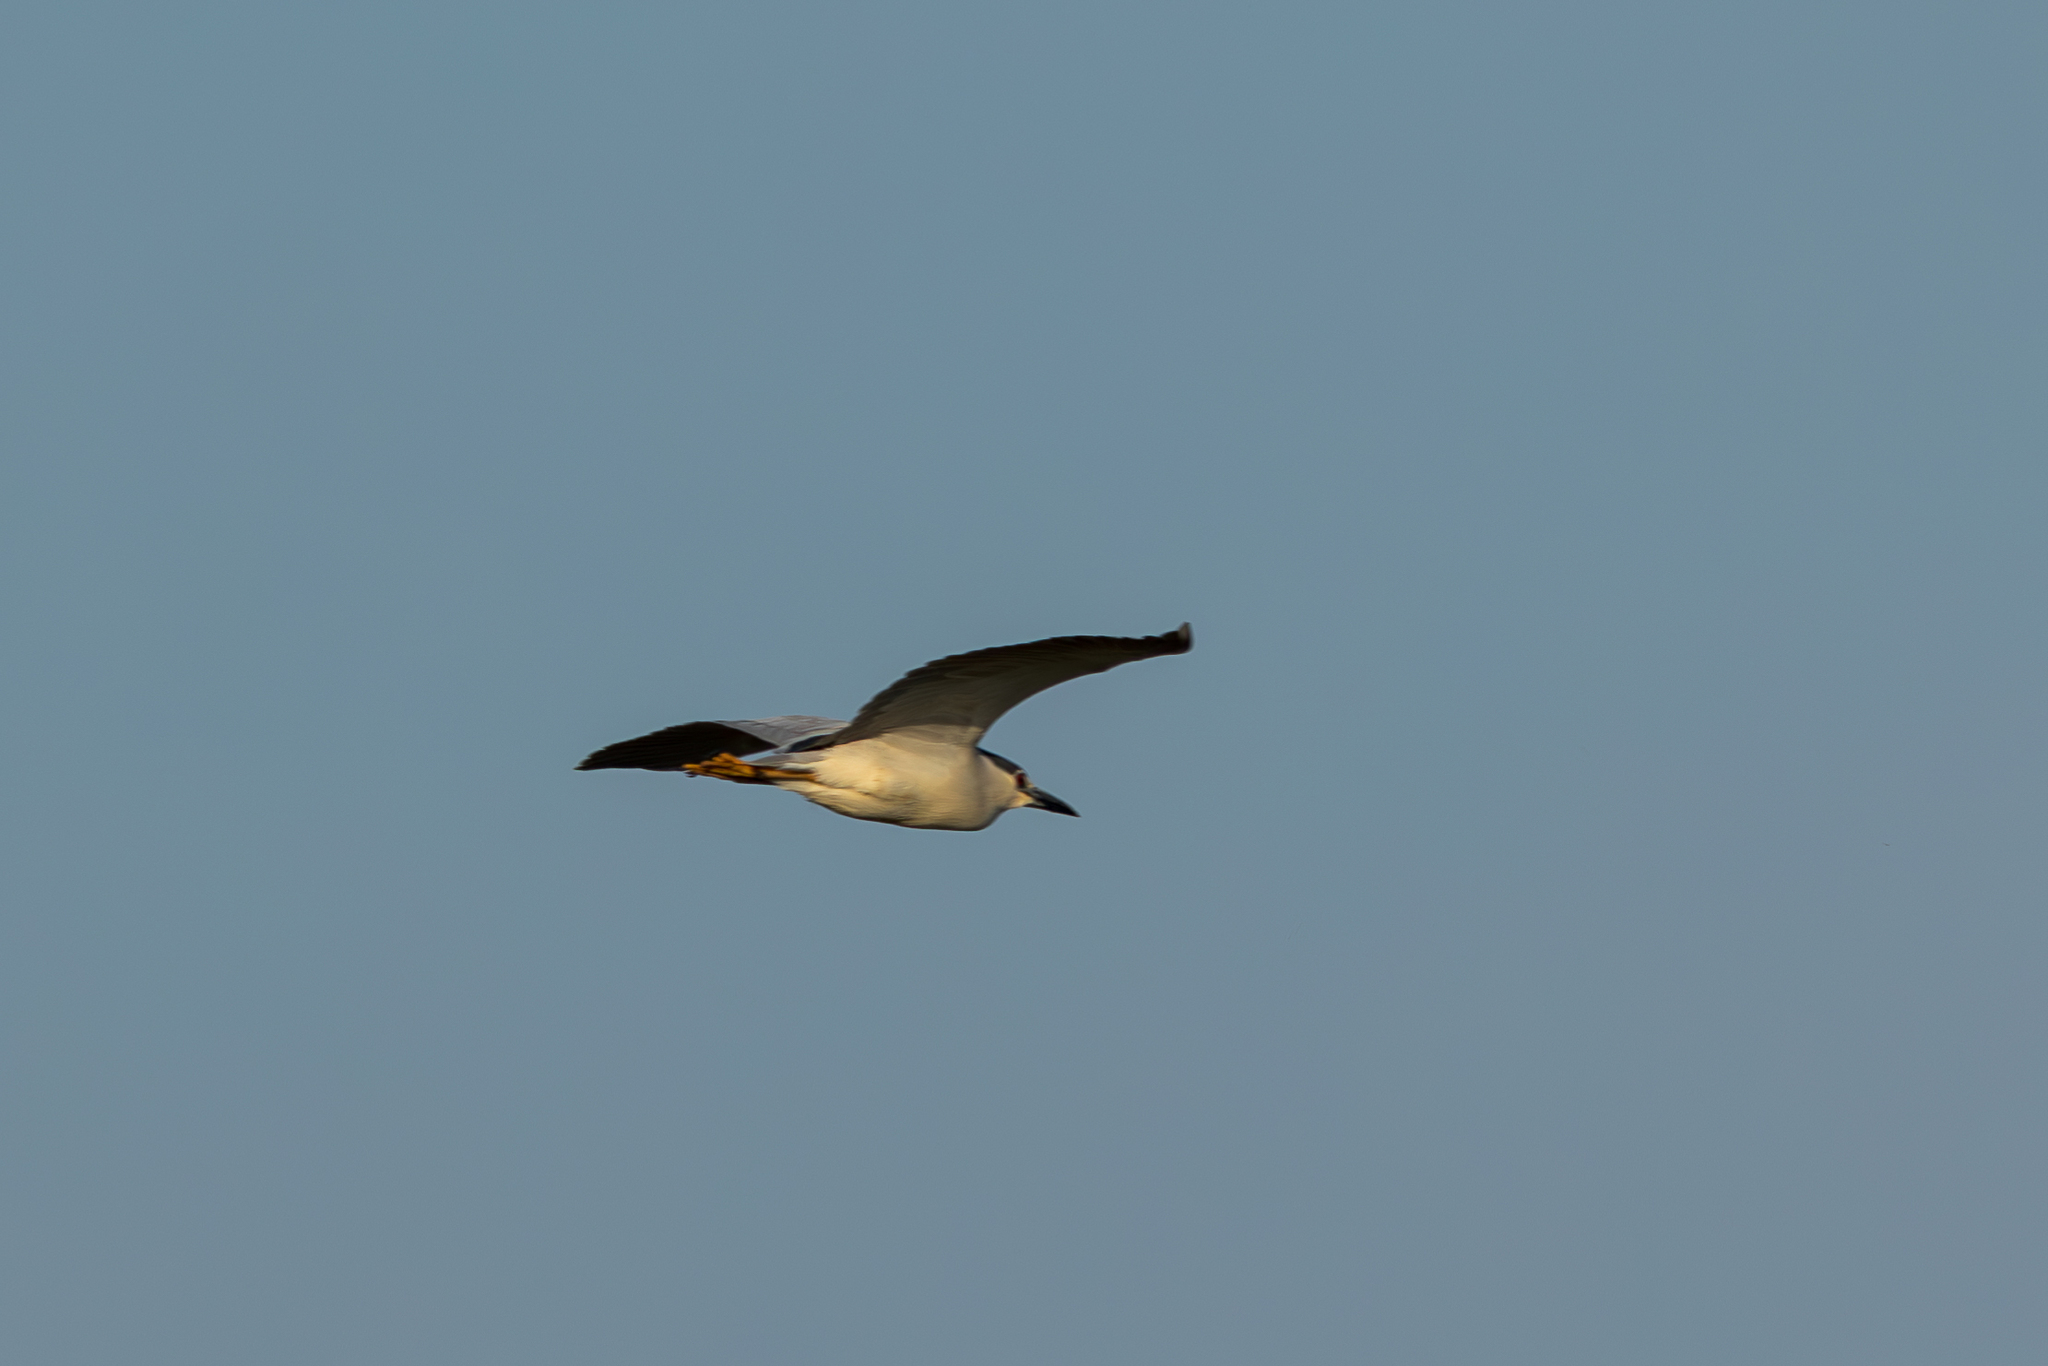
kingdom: Animalia
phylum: Chordata
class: Aves
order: Pelecaniformes
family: Ardeidae
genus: Nycticorax
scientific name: Nycticorax nycticorax
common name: Black-crowned night heron
